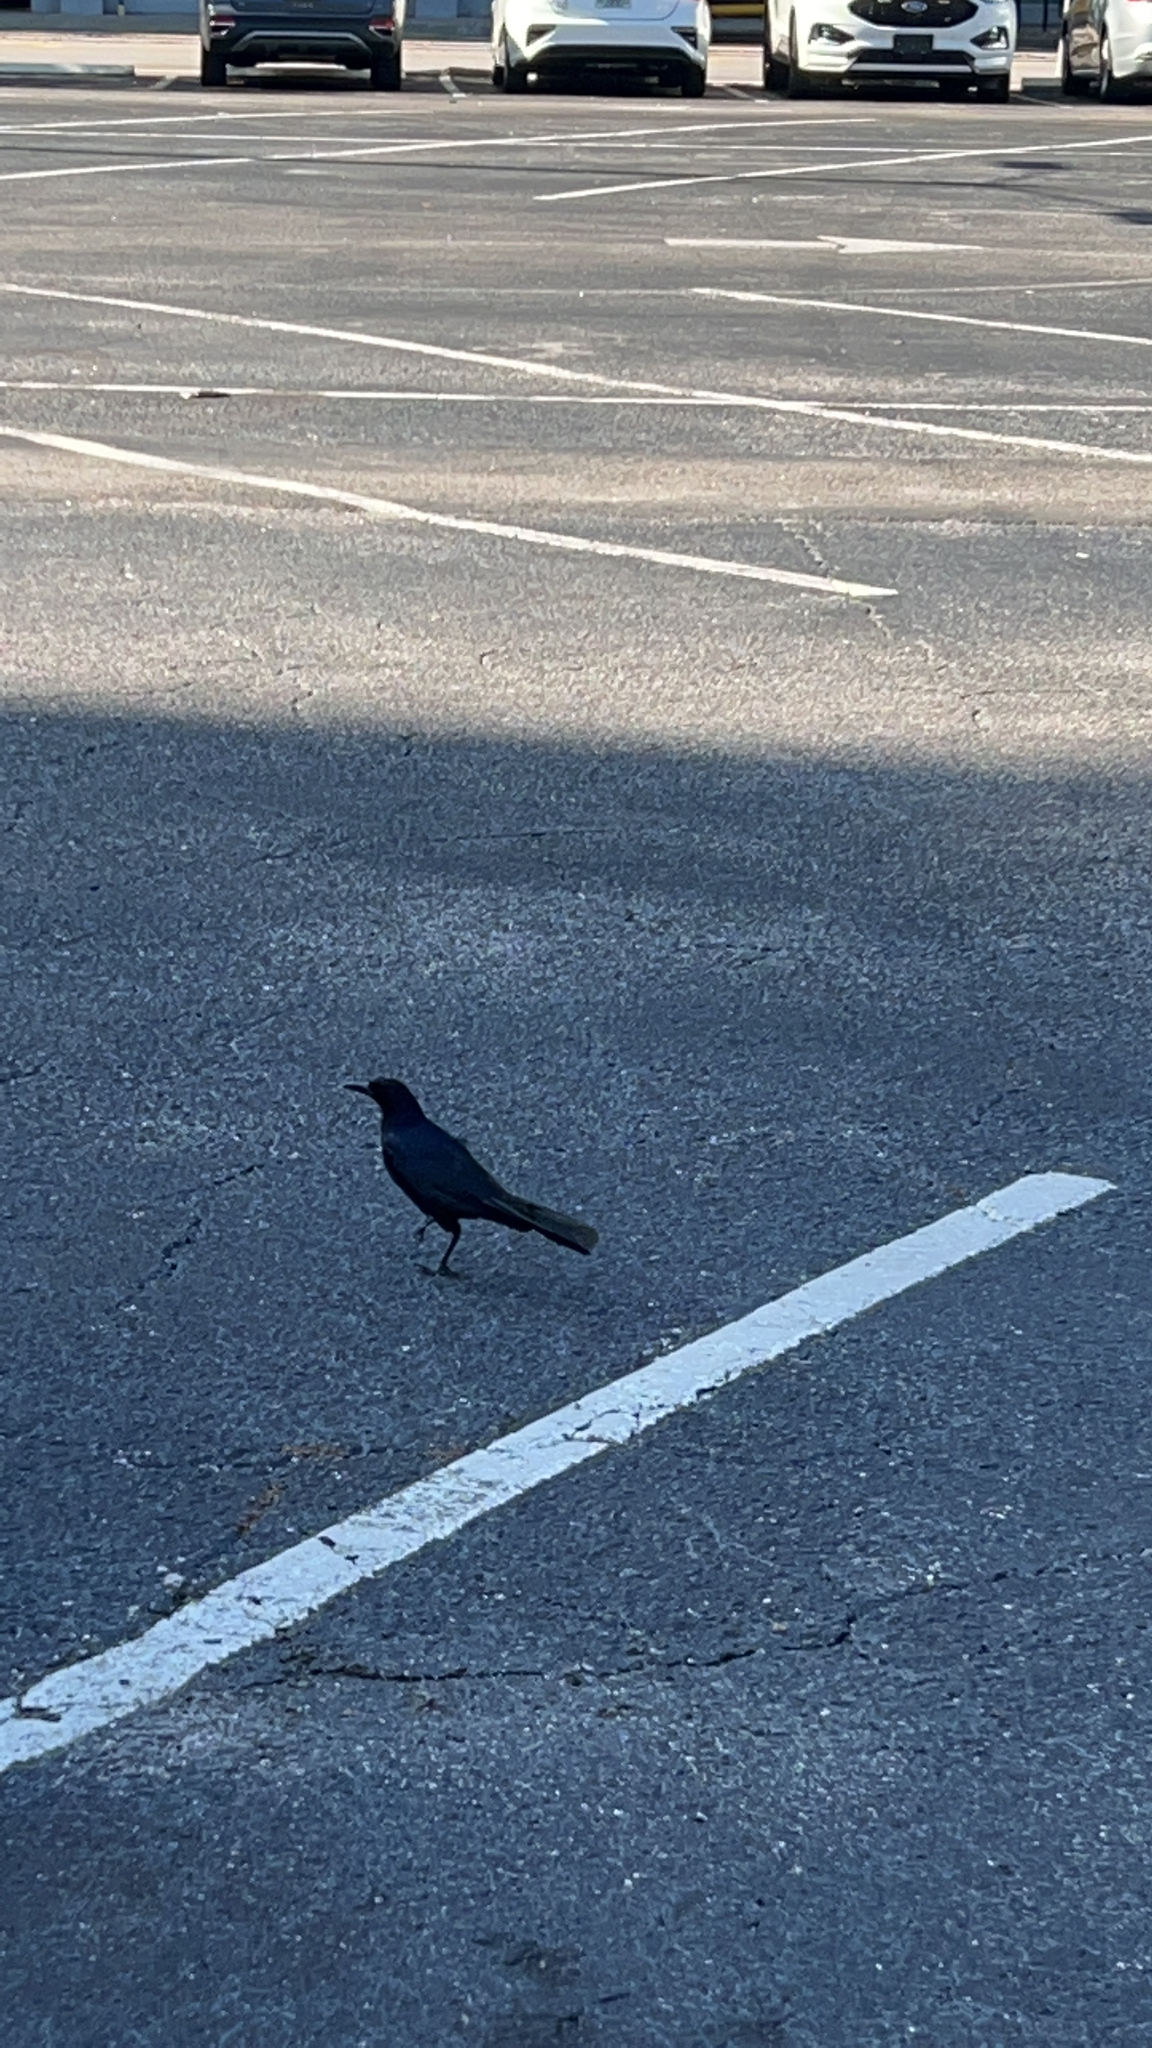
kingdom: Animalia
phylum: Chordata
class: Aves
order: Passeriformes
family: Icteridae
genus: Quiscalus
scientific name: Quiscalus major
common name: Boat-tailed grackle
